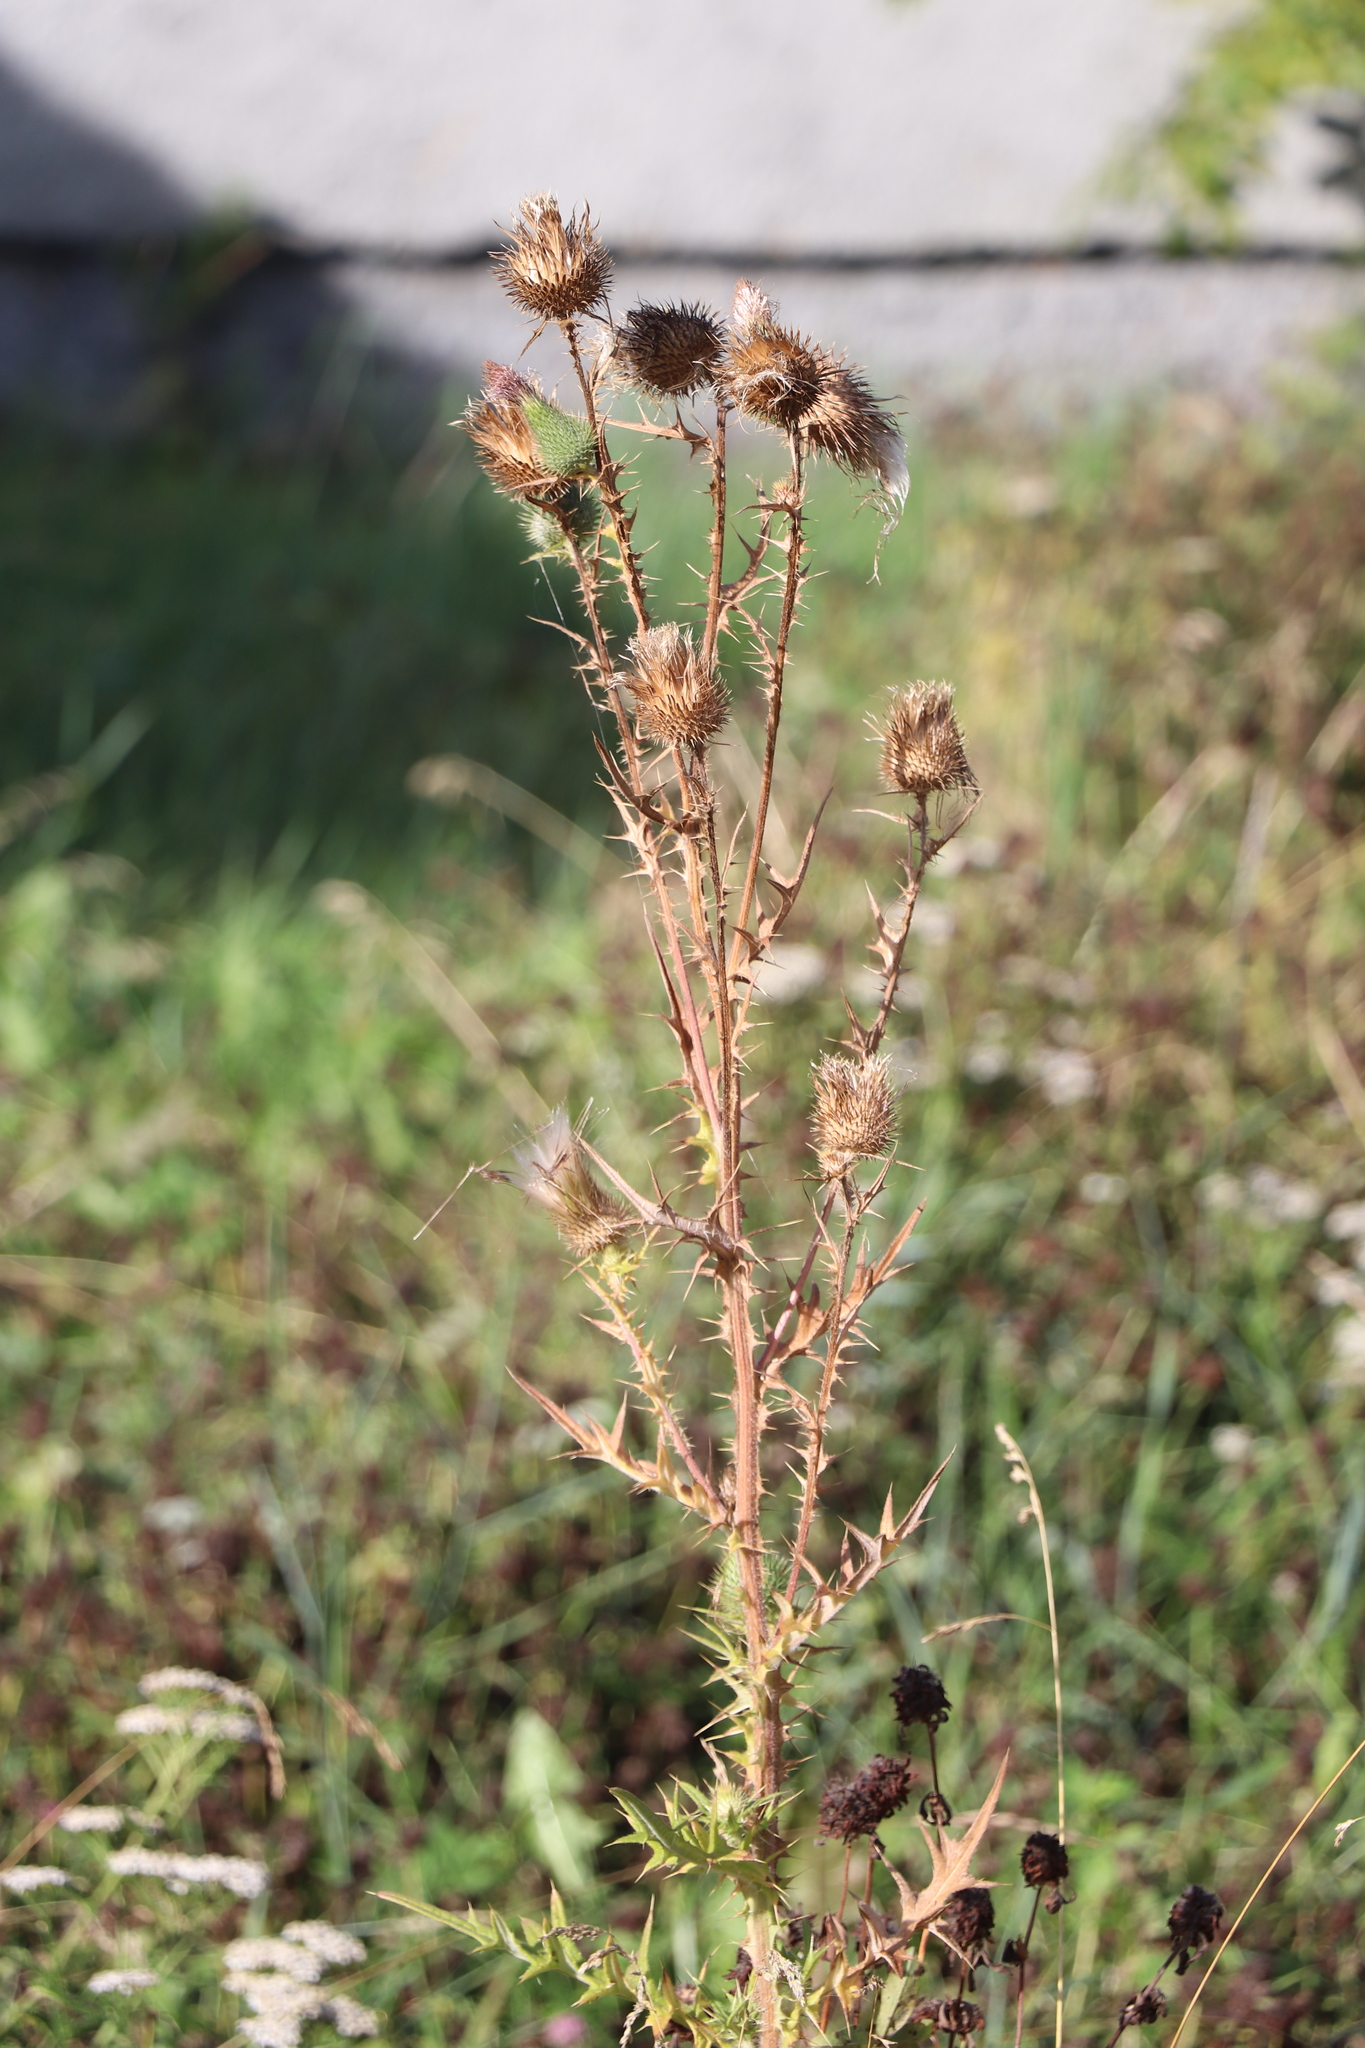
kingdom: Plantae
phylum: Tracheophyta
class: Magnoliopsida
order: Asterales
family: Asteraceae
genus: Cirsium
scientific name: Cirsium vulgare
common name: Bull thistle
